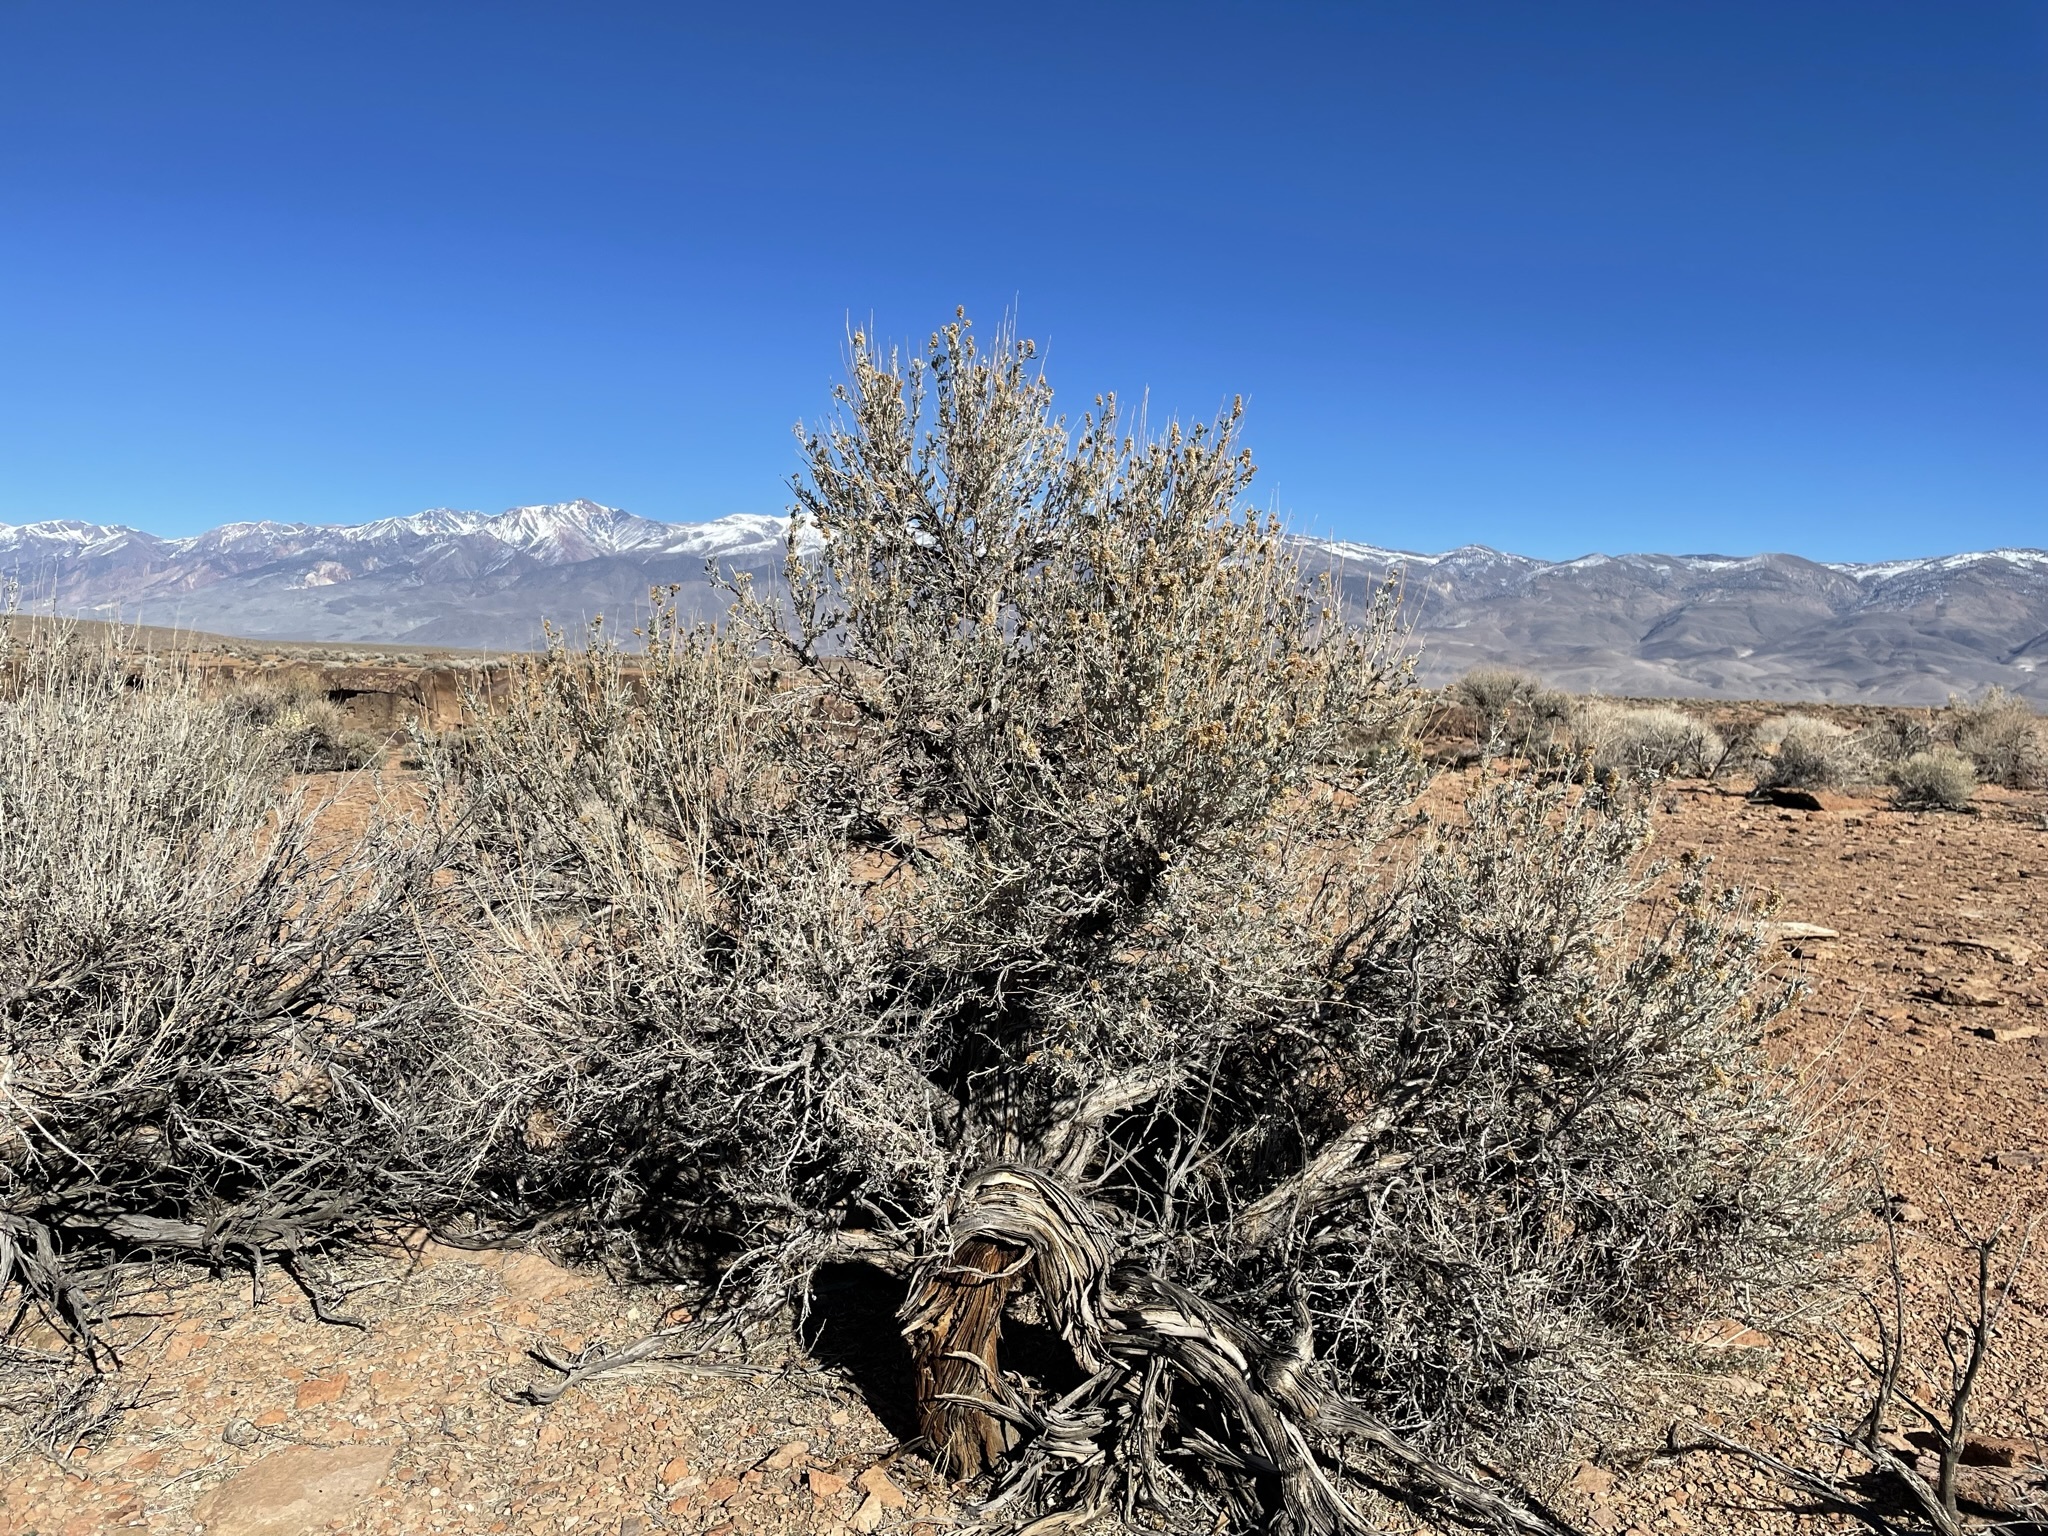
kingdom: Plantae
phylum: Tracheophyta
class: Magnoliopsida
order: Asterales
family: Asteraceae
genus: Artemisia
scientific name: Artemisia tridentata
